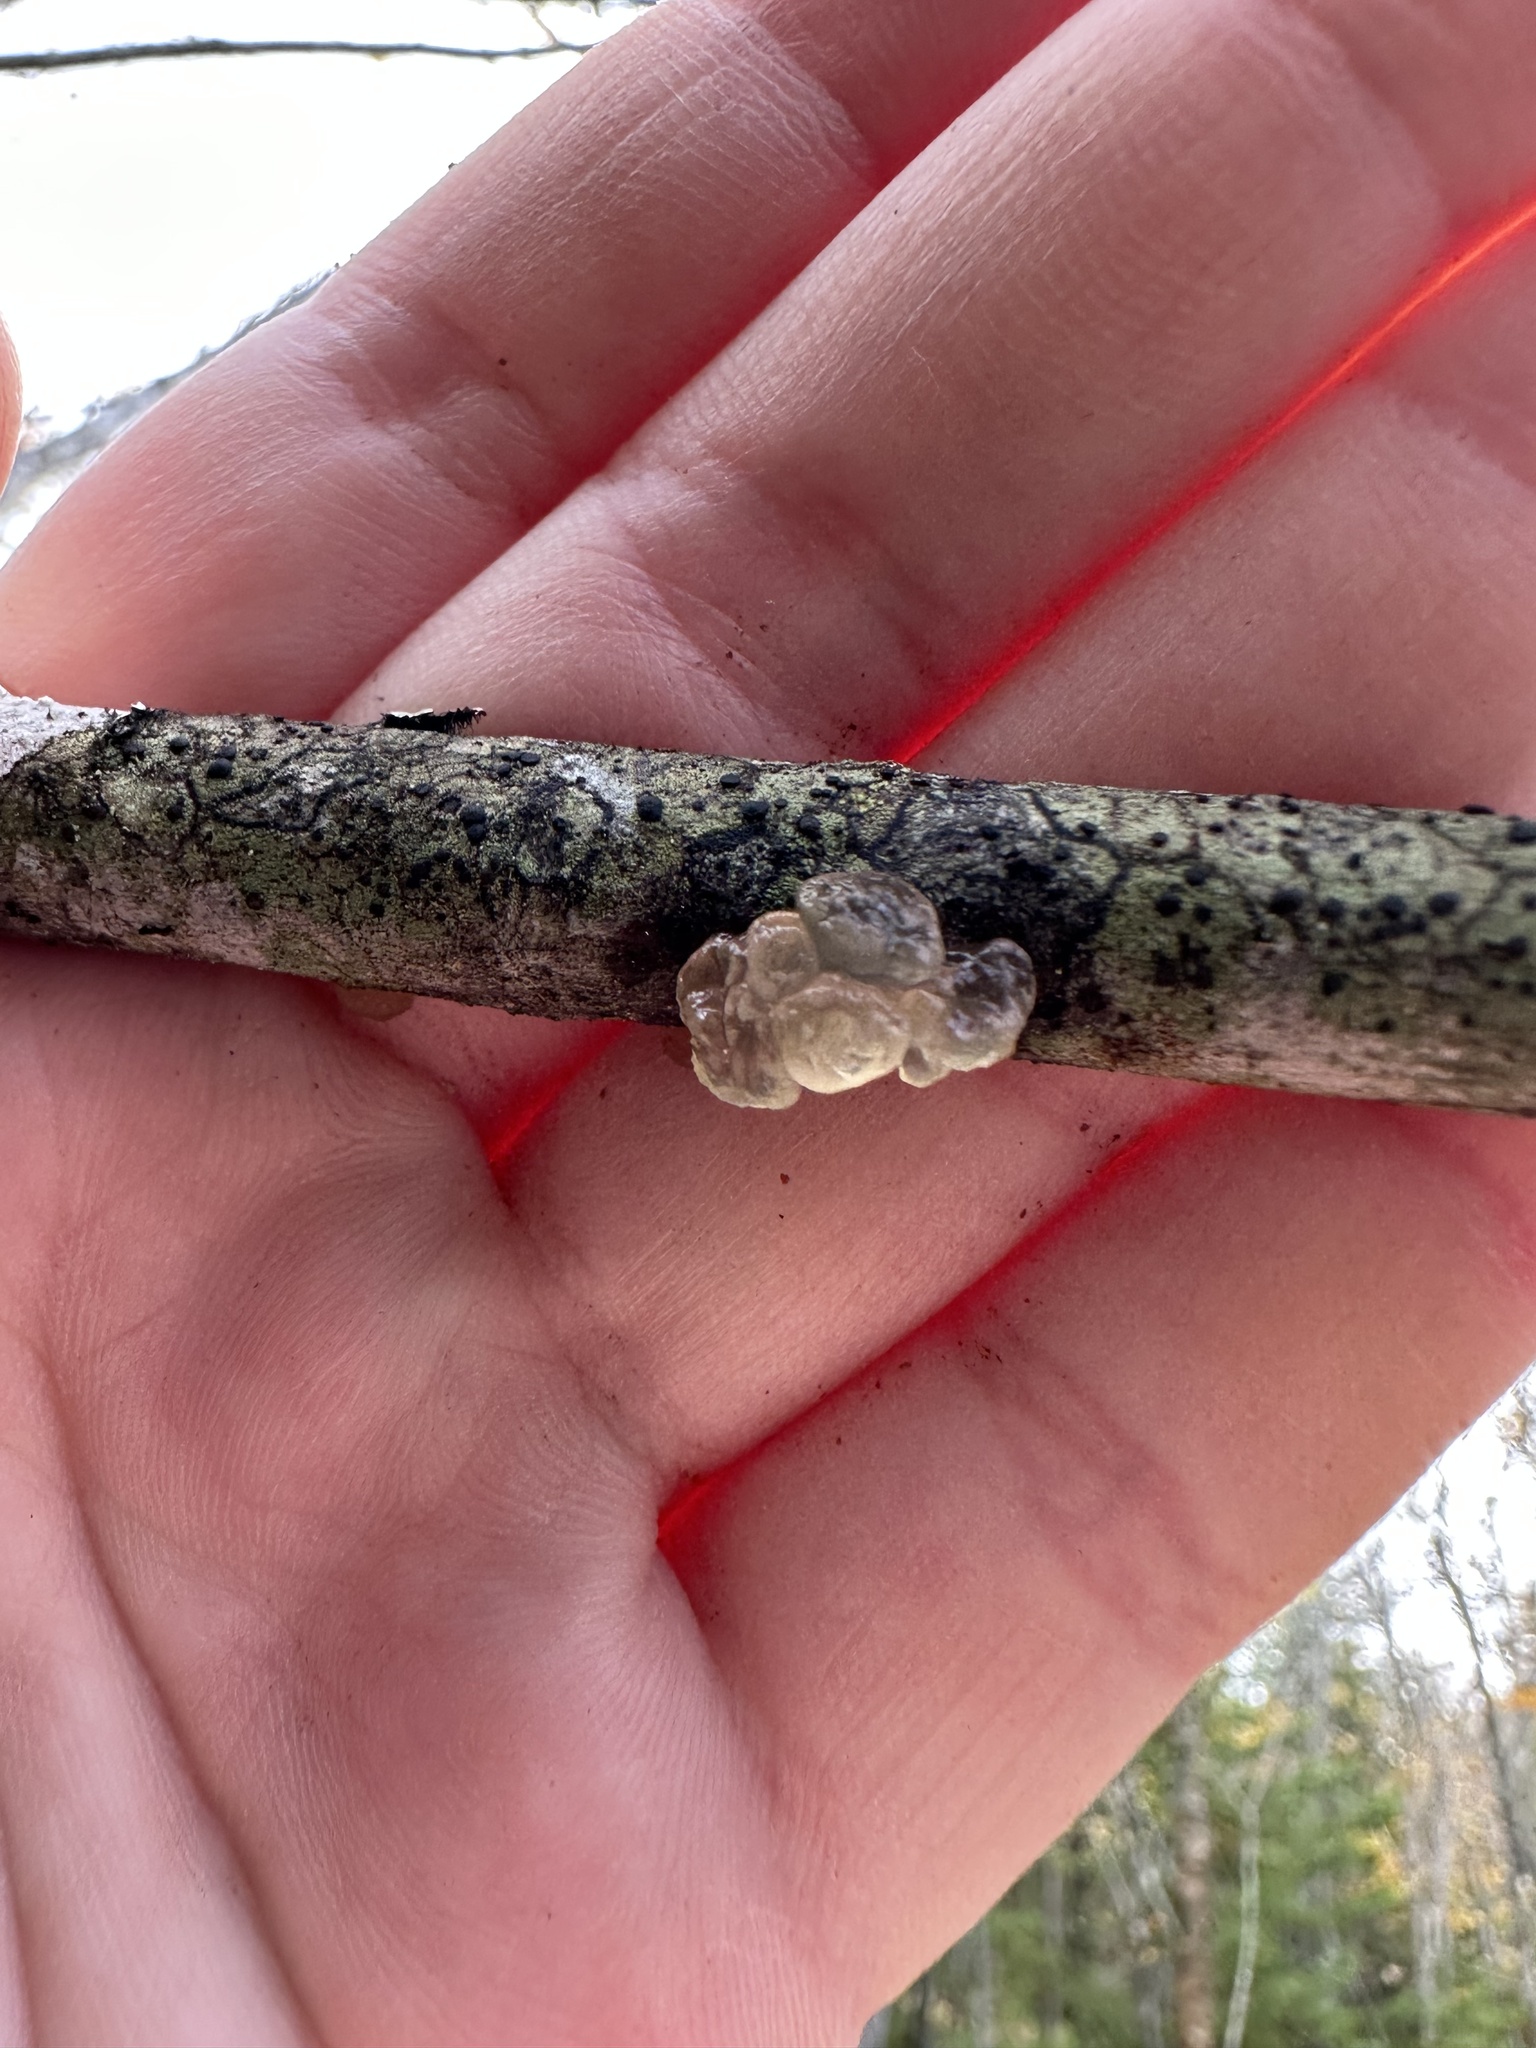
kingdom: Fungi
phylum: Basidiomycota
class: Agaricomycetes
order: Auriculariales
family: Hyaloriaceae
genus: Myxarium
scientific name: Myxarium nucleatum
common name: Crystal brain fungus
